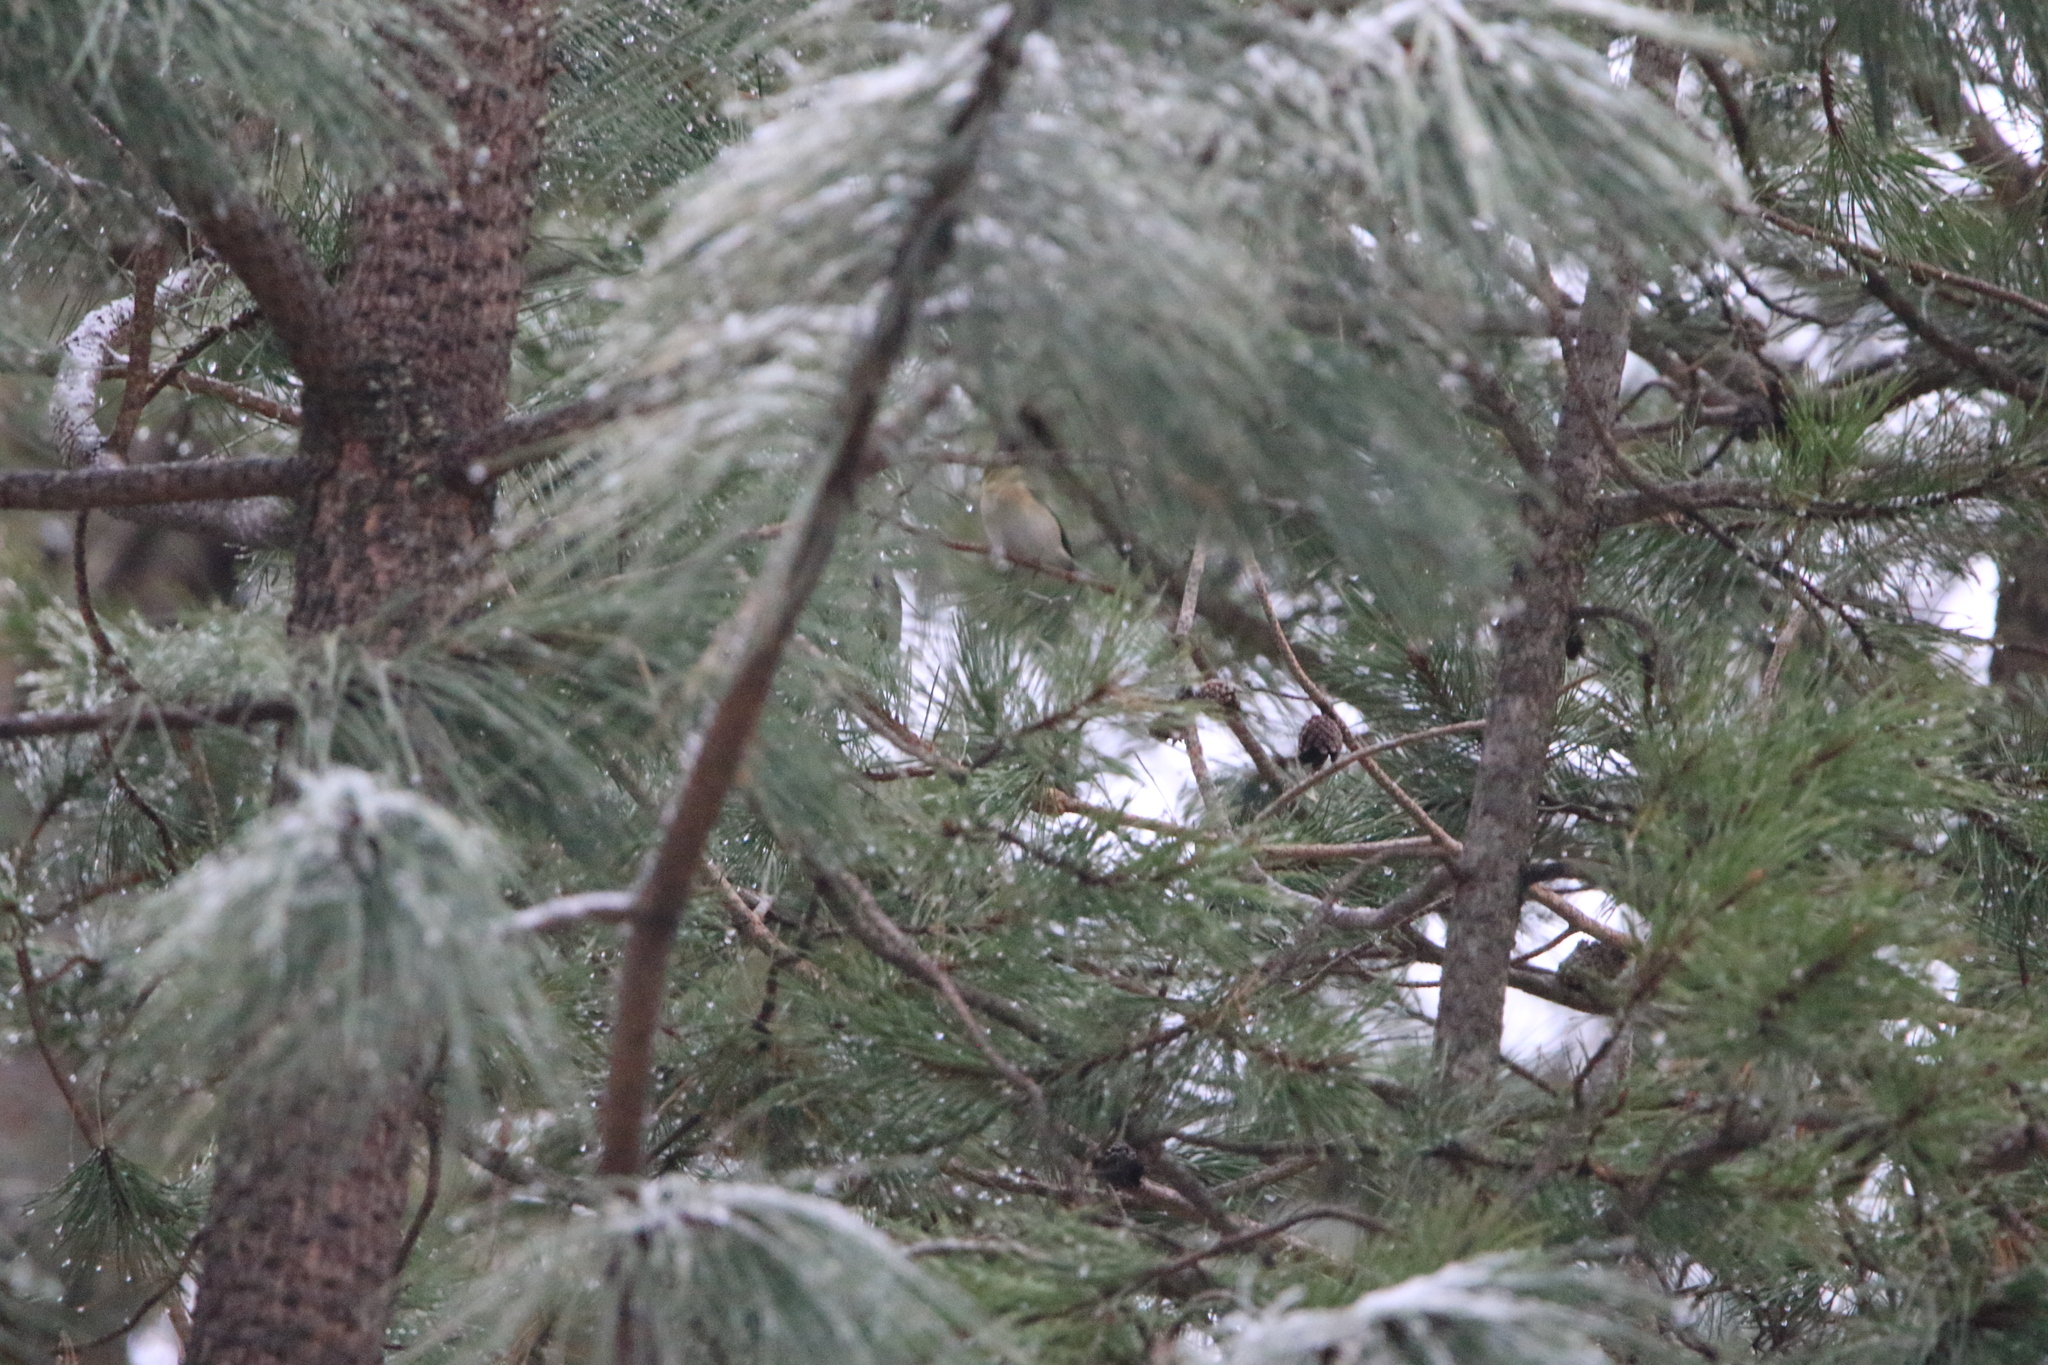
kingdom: Animalia
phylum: Chordata
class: Aves
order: Passeriformes
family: Fringillidae
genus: Spinus
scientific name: Spinus tristis
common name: American goldfinch
